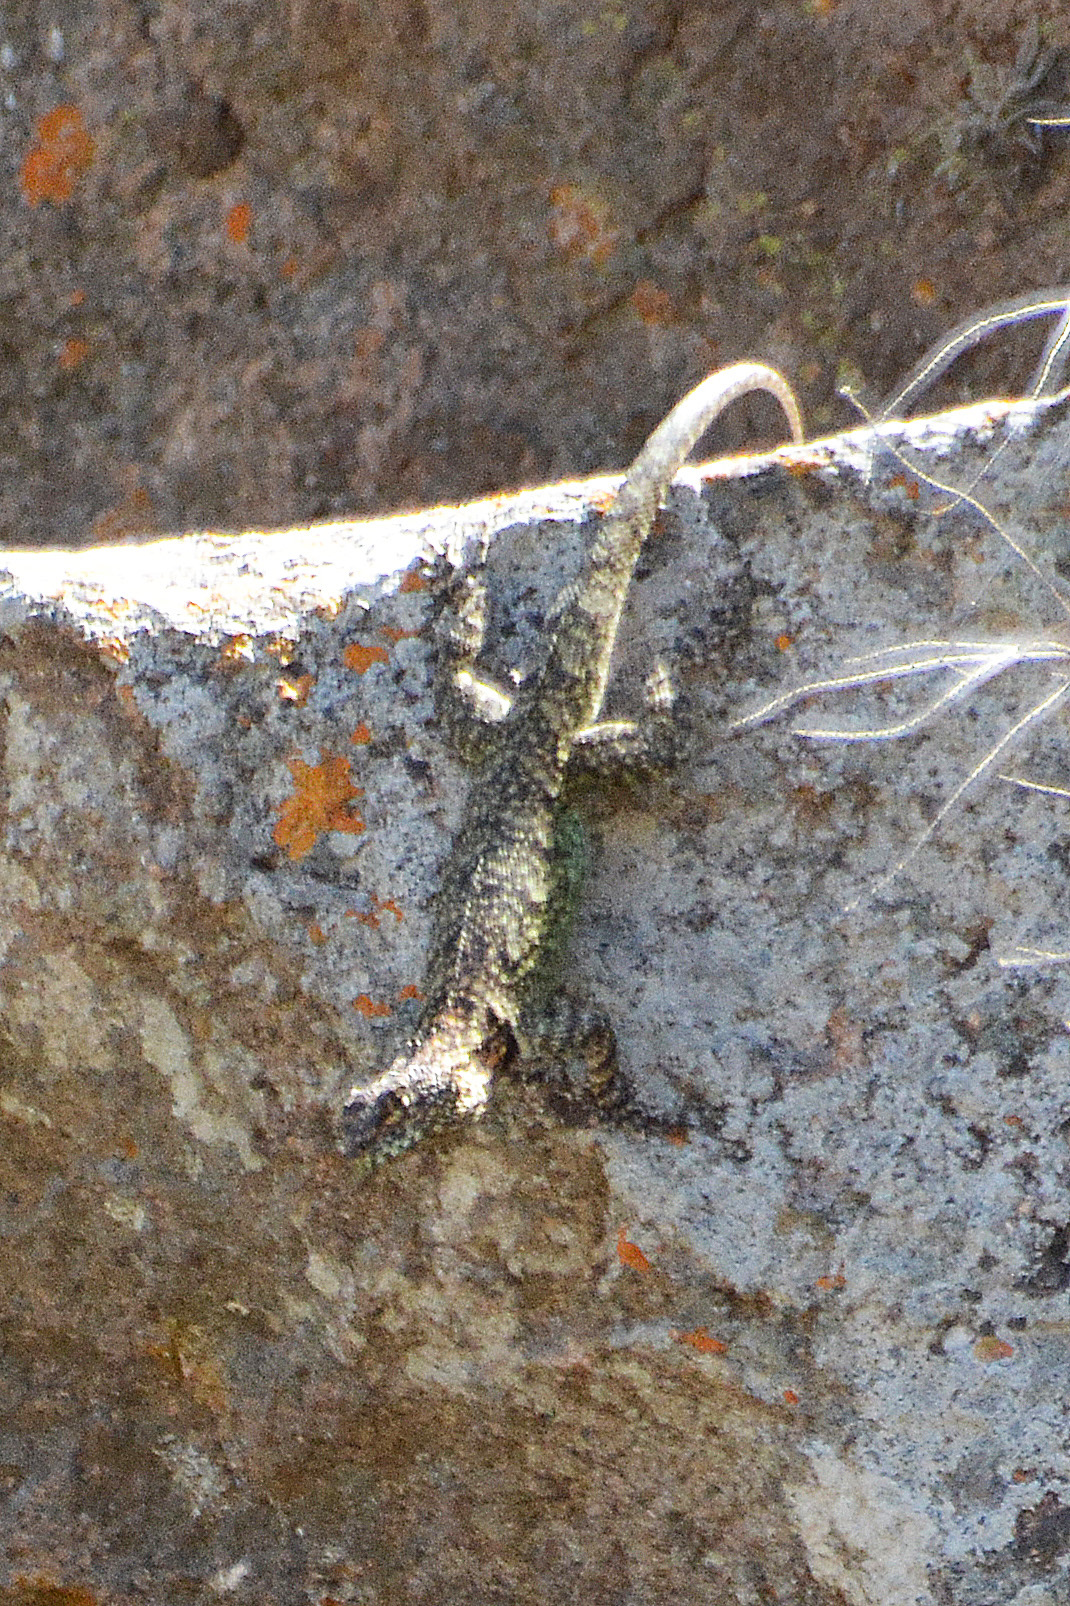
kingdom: Animalia
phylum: Chordata
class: Squamata
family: Tropiduridae
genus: Tropidurus
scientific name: Tropidurus spinulosus
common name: Spiny lava lizard
